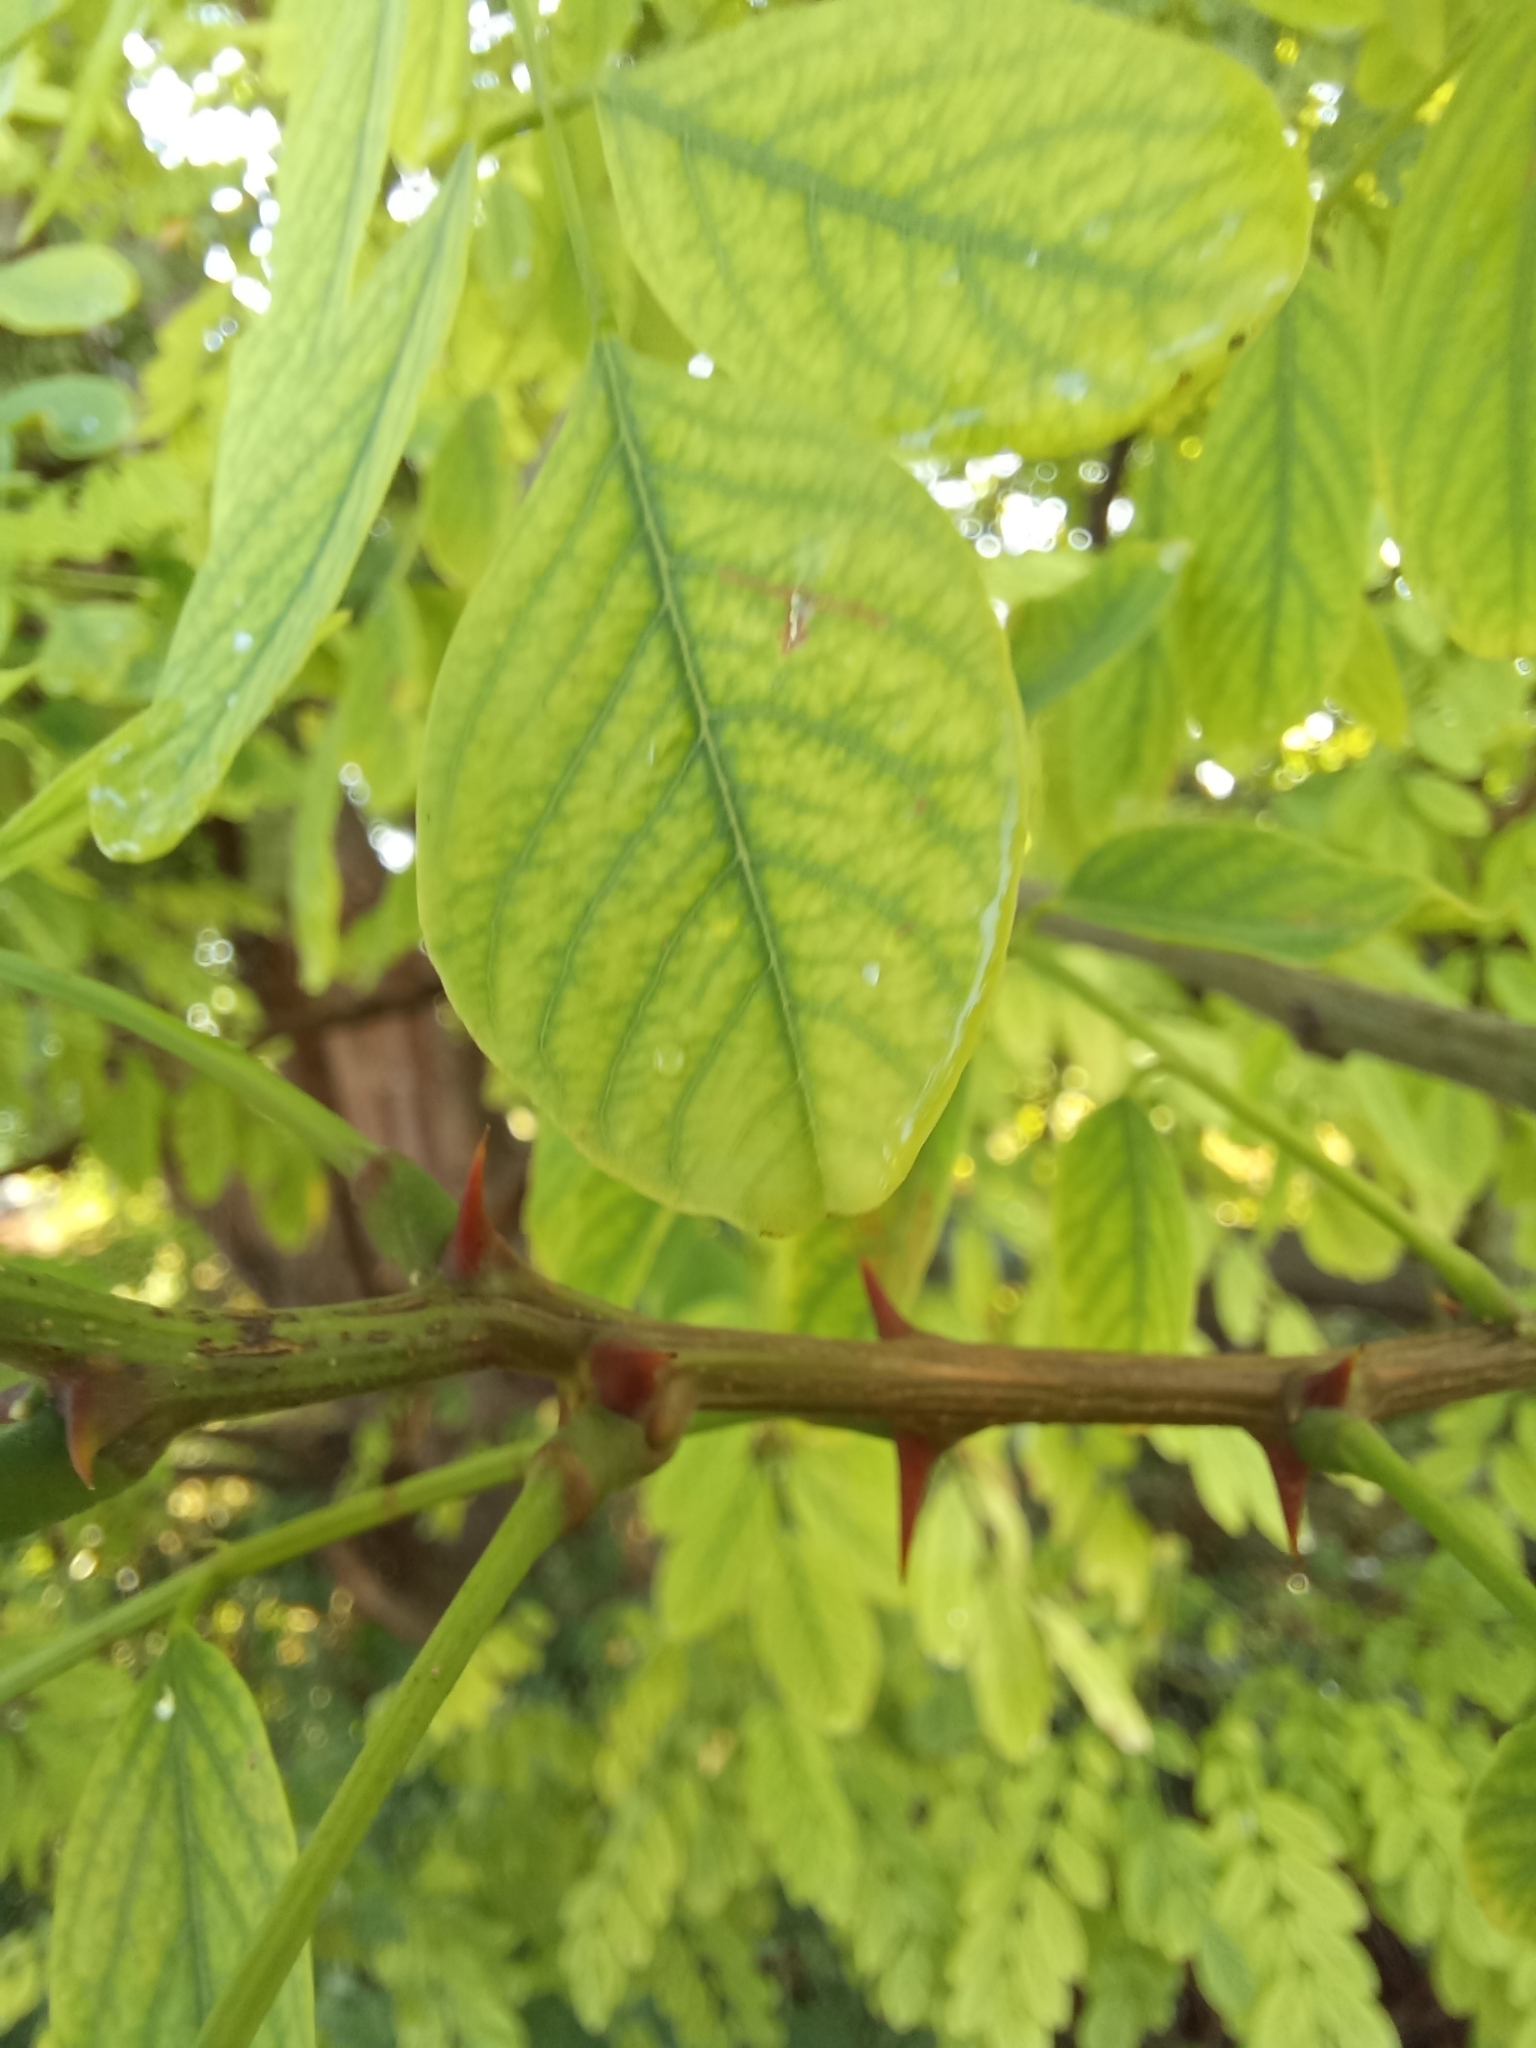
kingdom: Plantae
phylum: Tracheophyta
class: Magnoliopsida
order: Fabales
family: Fabaceae
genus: Robinia
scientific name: Robinia pseudoacacia
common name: Black locust
